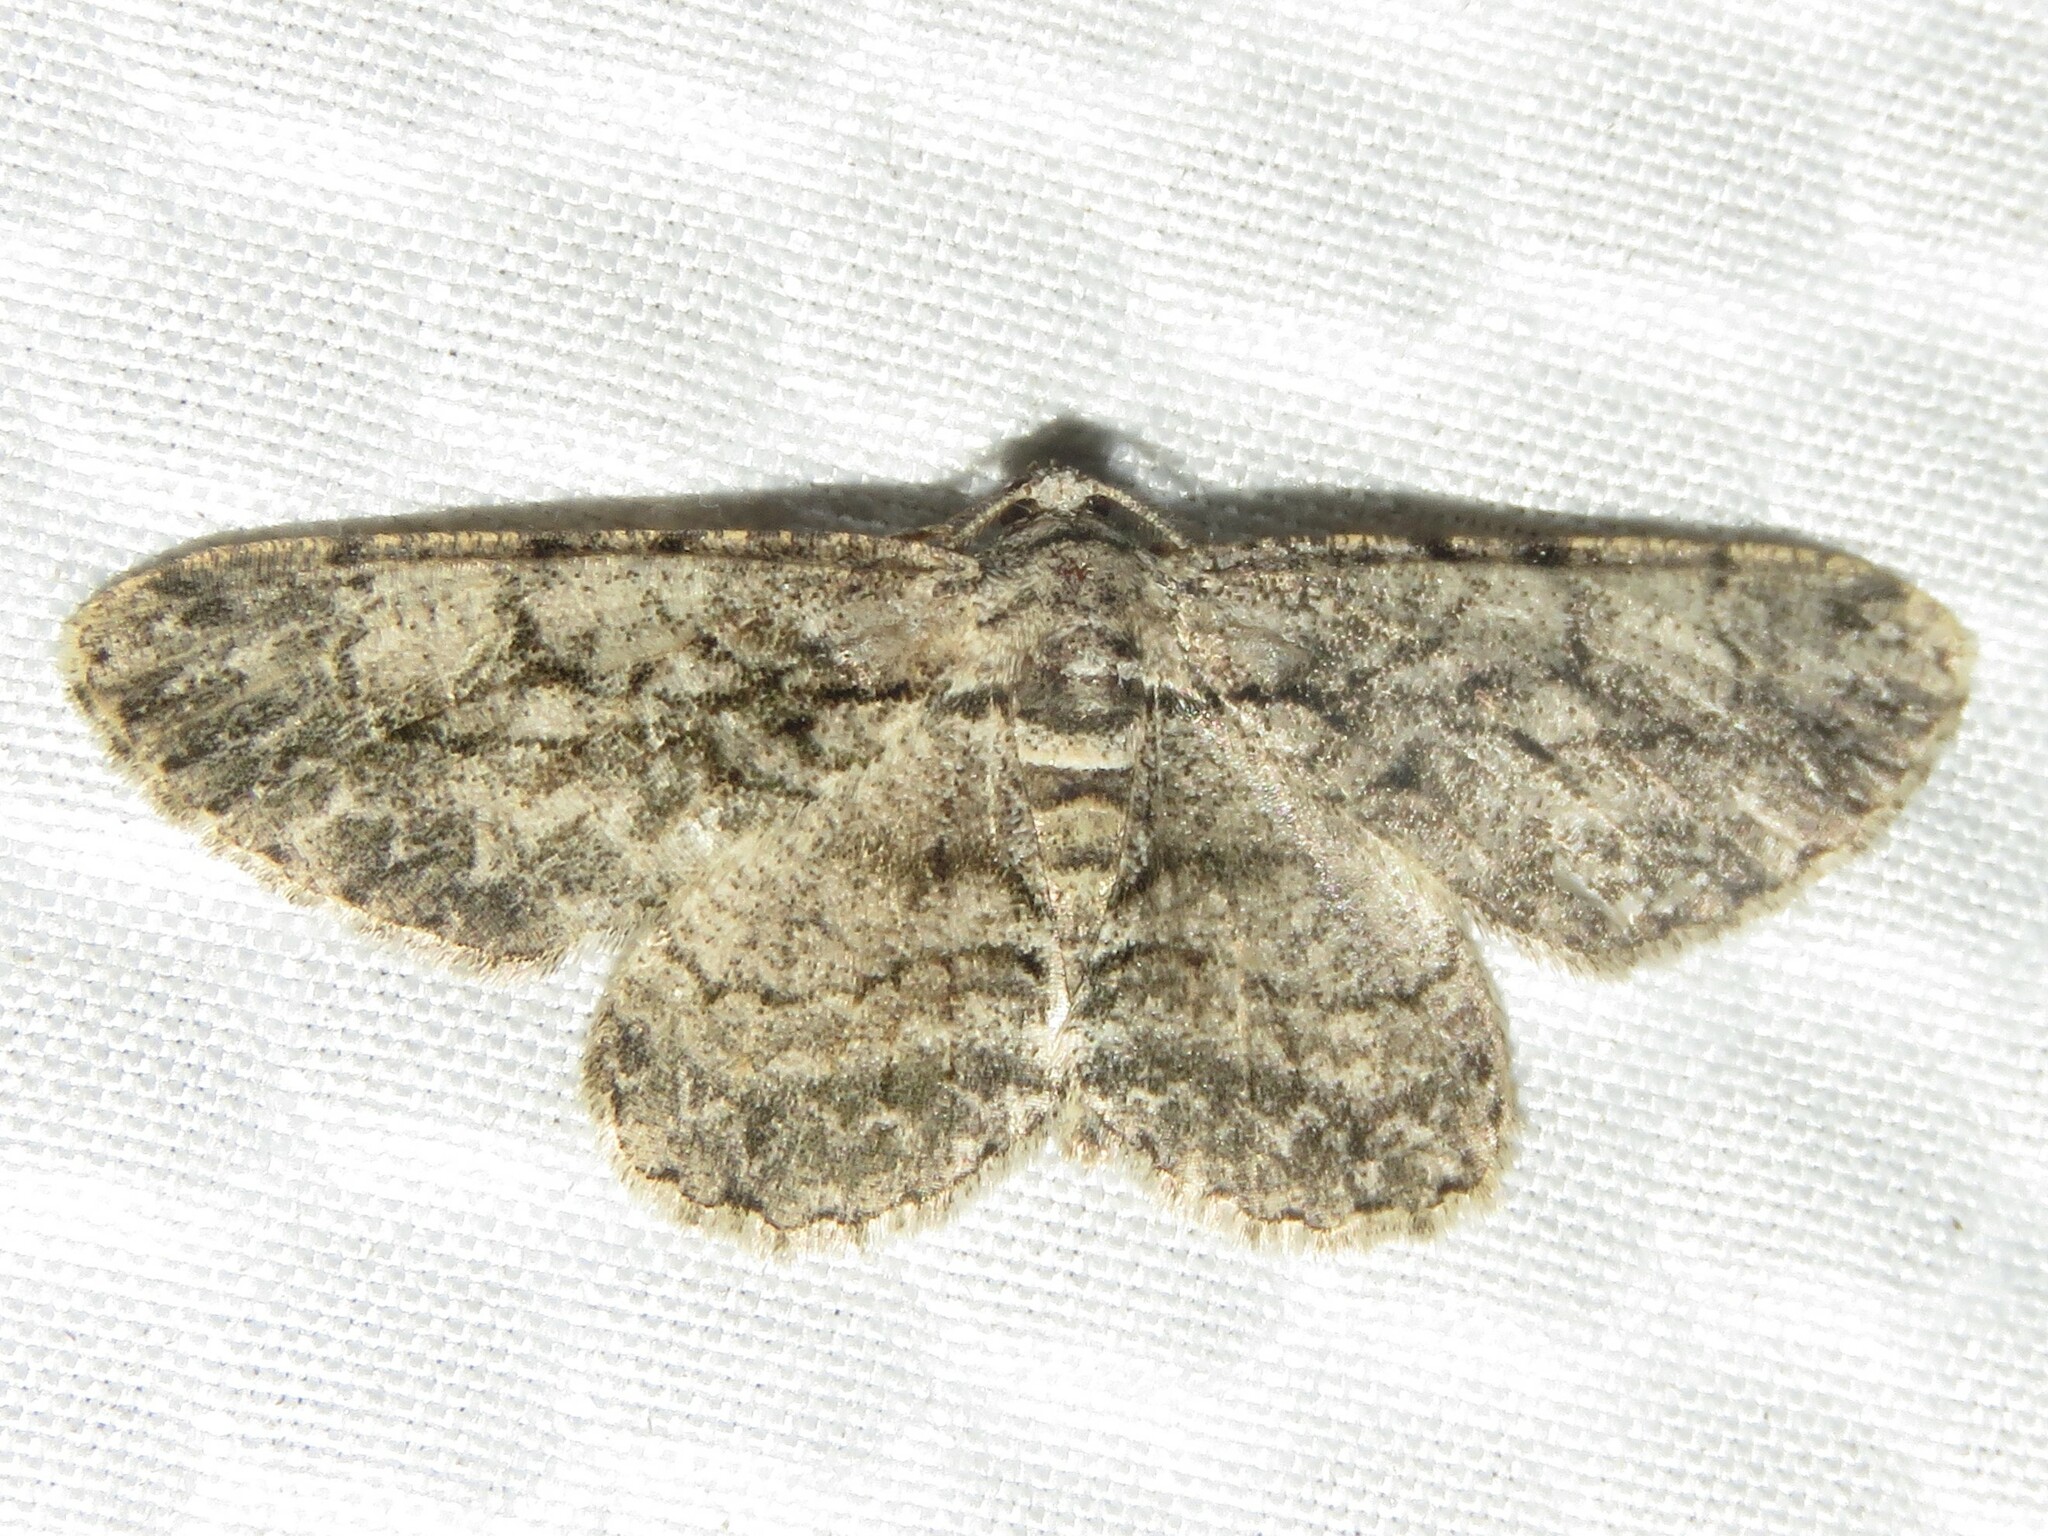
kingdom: Animalia
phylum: Arthropoda
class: Insecta
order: Lepidoptera
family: Geometridae
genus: Anavitrinella
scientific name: Anavitrinella pampinaria
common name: Common gray
